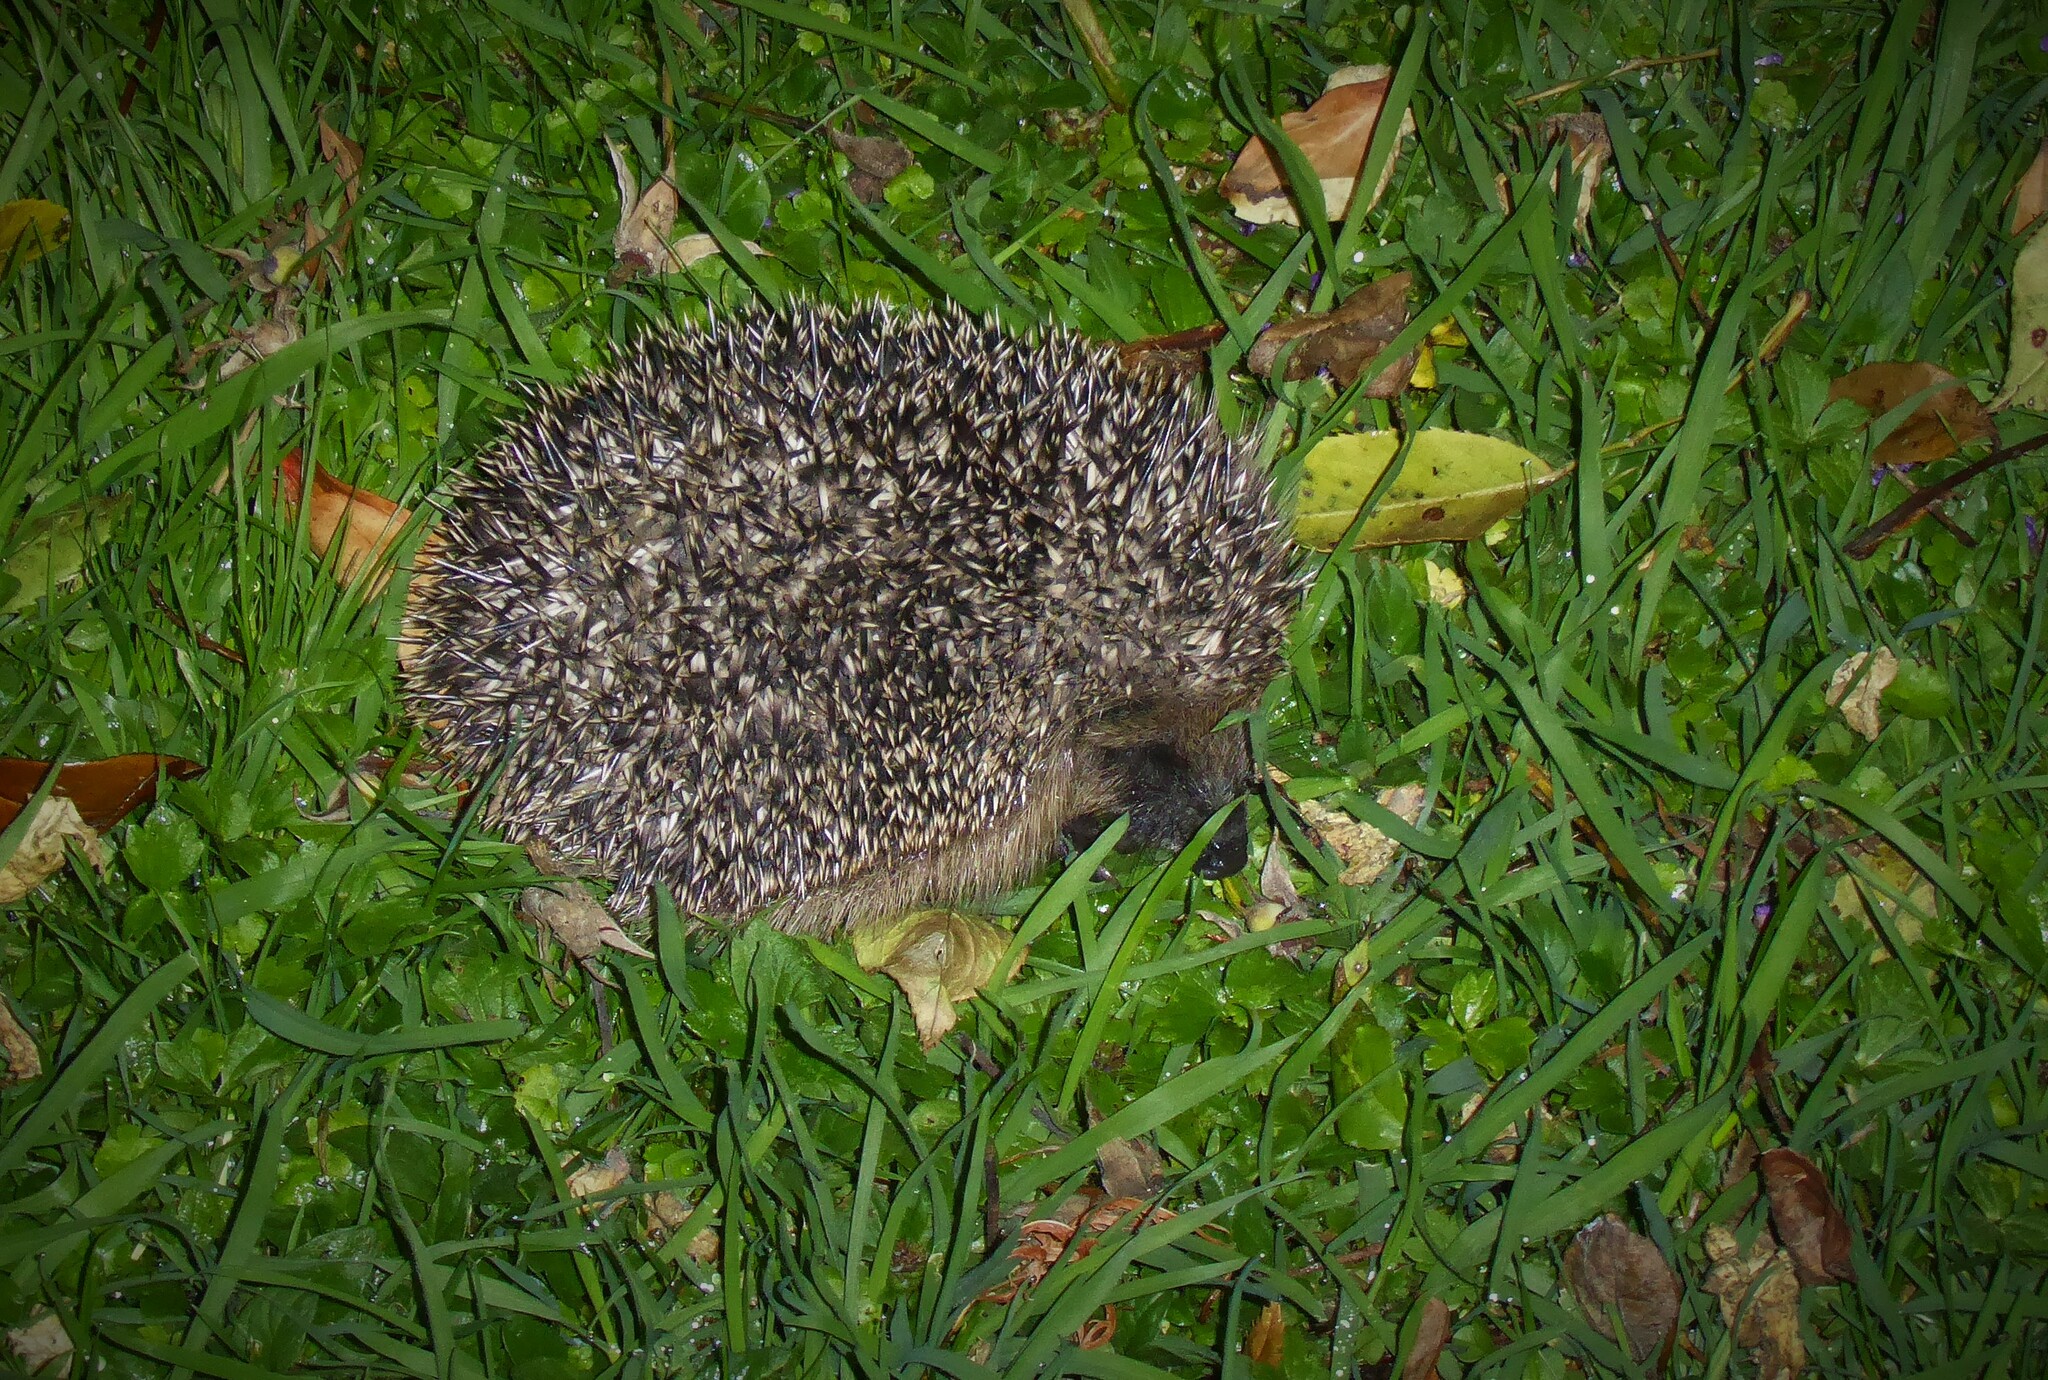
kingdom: Animalia
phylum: Chordata
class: Mammalia
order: Erinaceomorpha
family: Erinaceidae
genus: Erinaceus
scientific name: Erinaceus europaeus
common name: West european hedgehog
